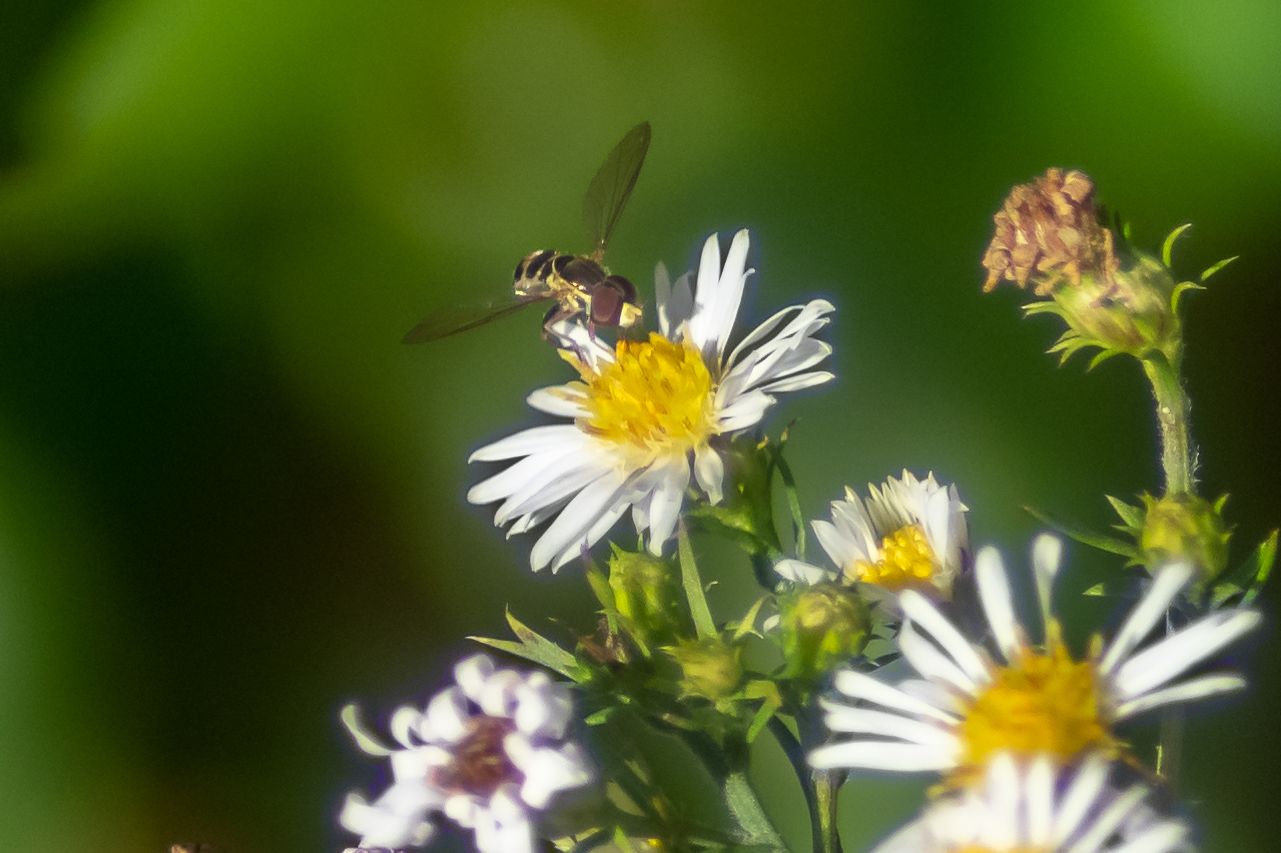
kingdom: Animalia
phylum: Arthropoda
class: Insecta
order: Diptera
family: Syrphidae
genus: Toxomerus
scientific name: Toxomerus geminatus
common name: Eastern calligrapher
